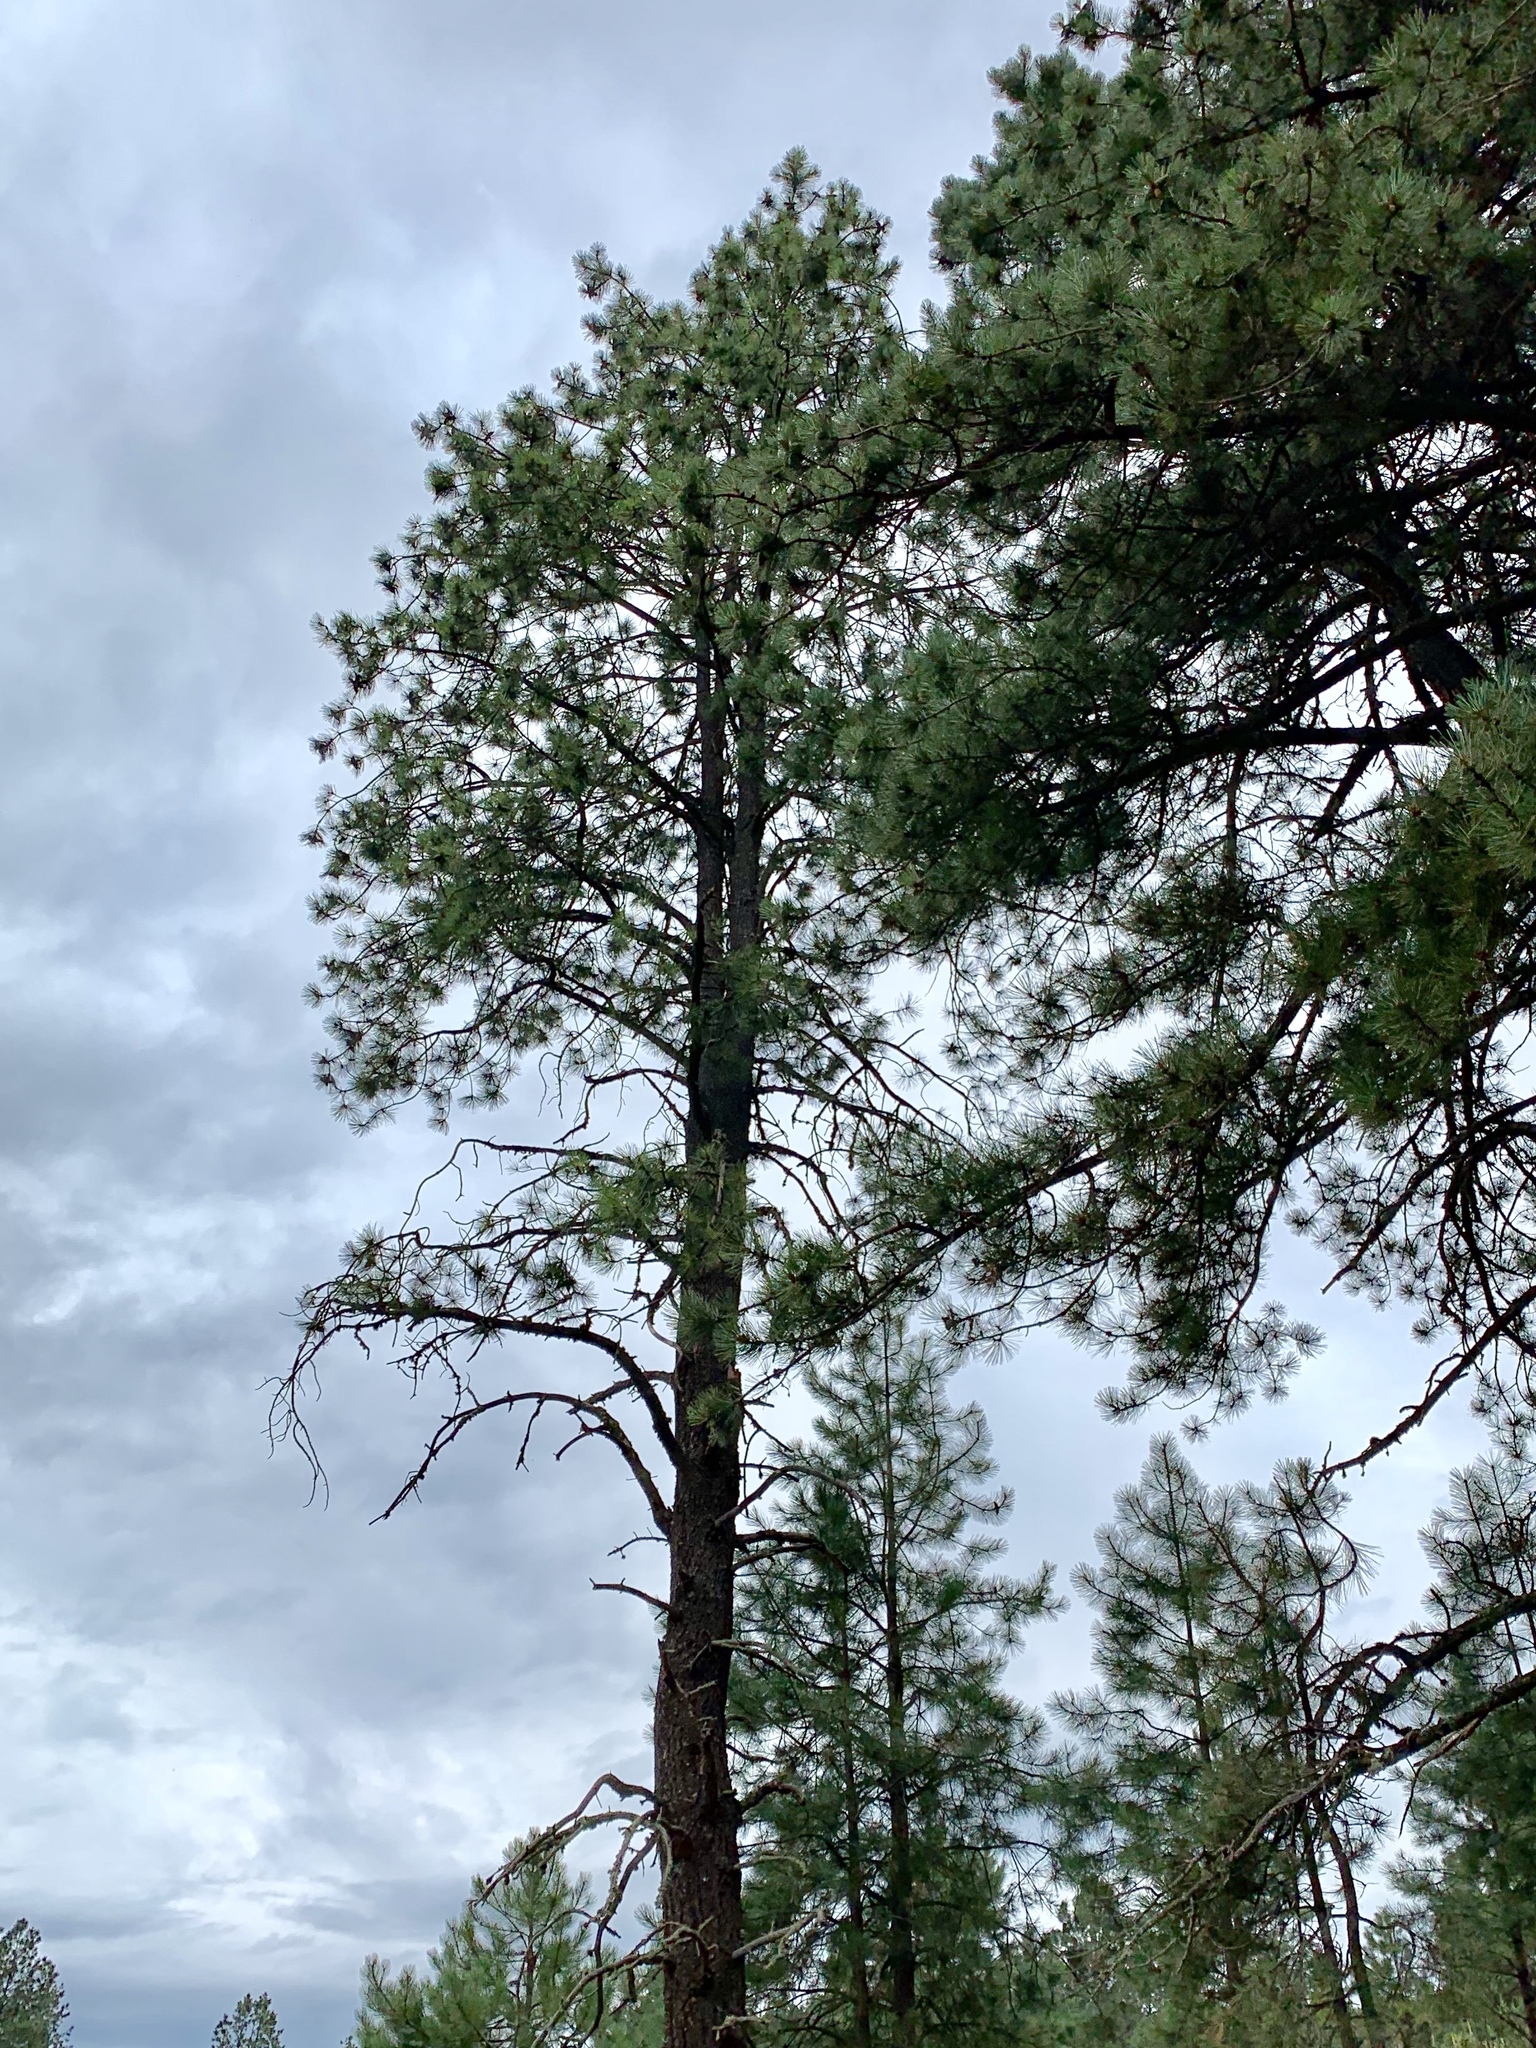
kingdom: Plantae
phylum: Tracheophyta
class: Pinopsida
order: Pinales
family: Pinaceae
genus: Pinus
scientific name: Pinus ponderosa
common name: Western yellow-pine
